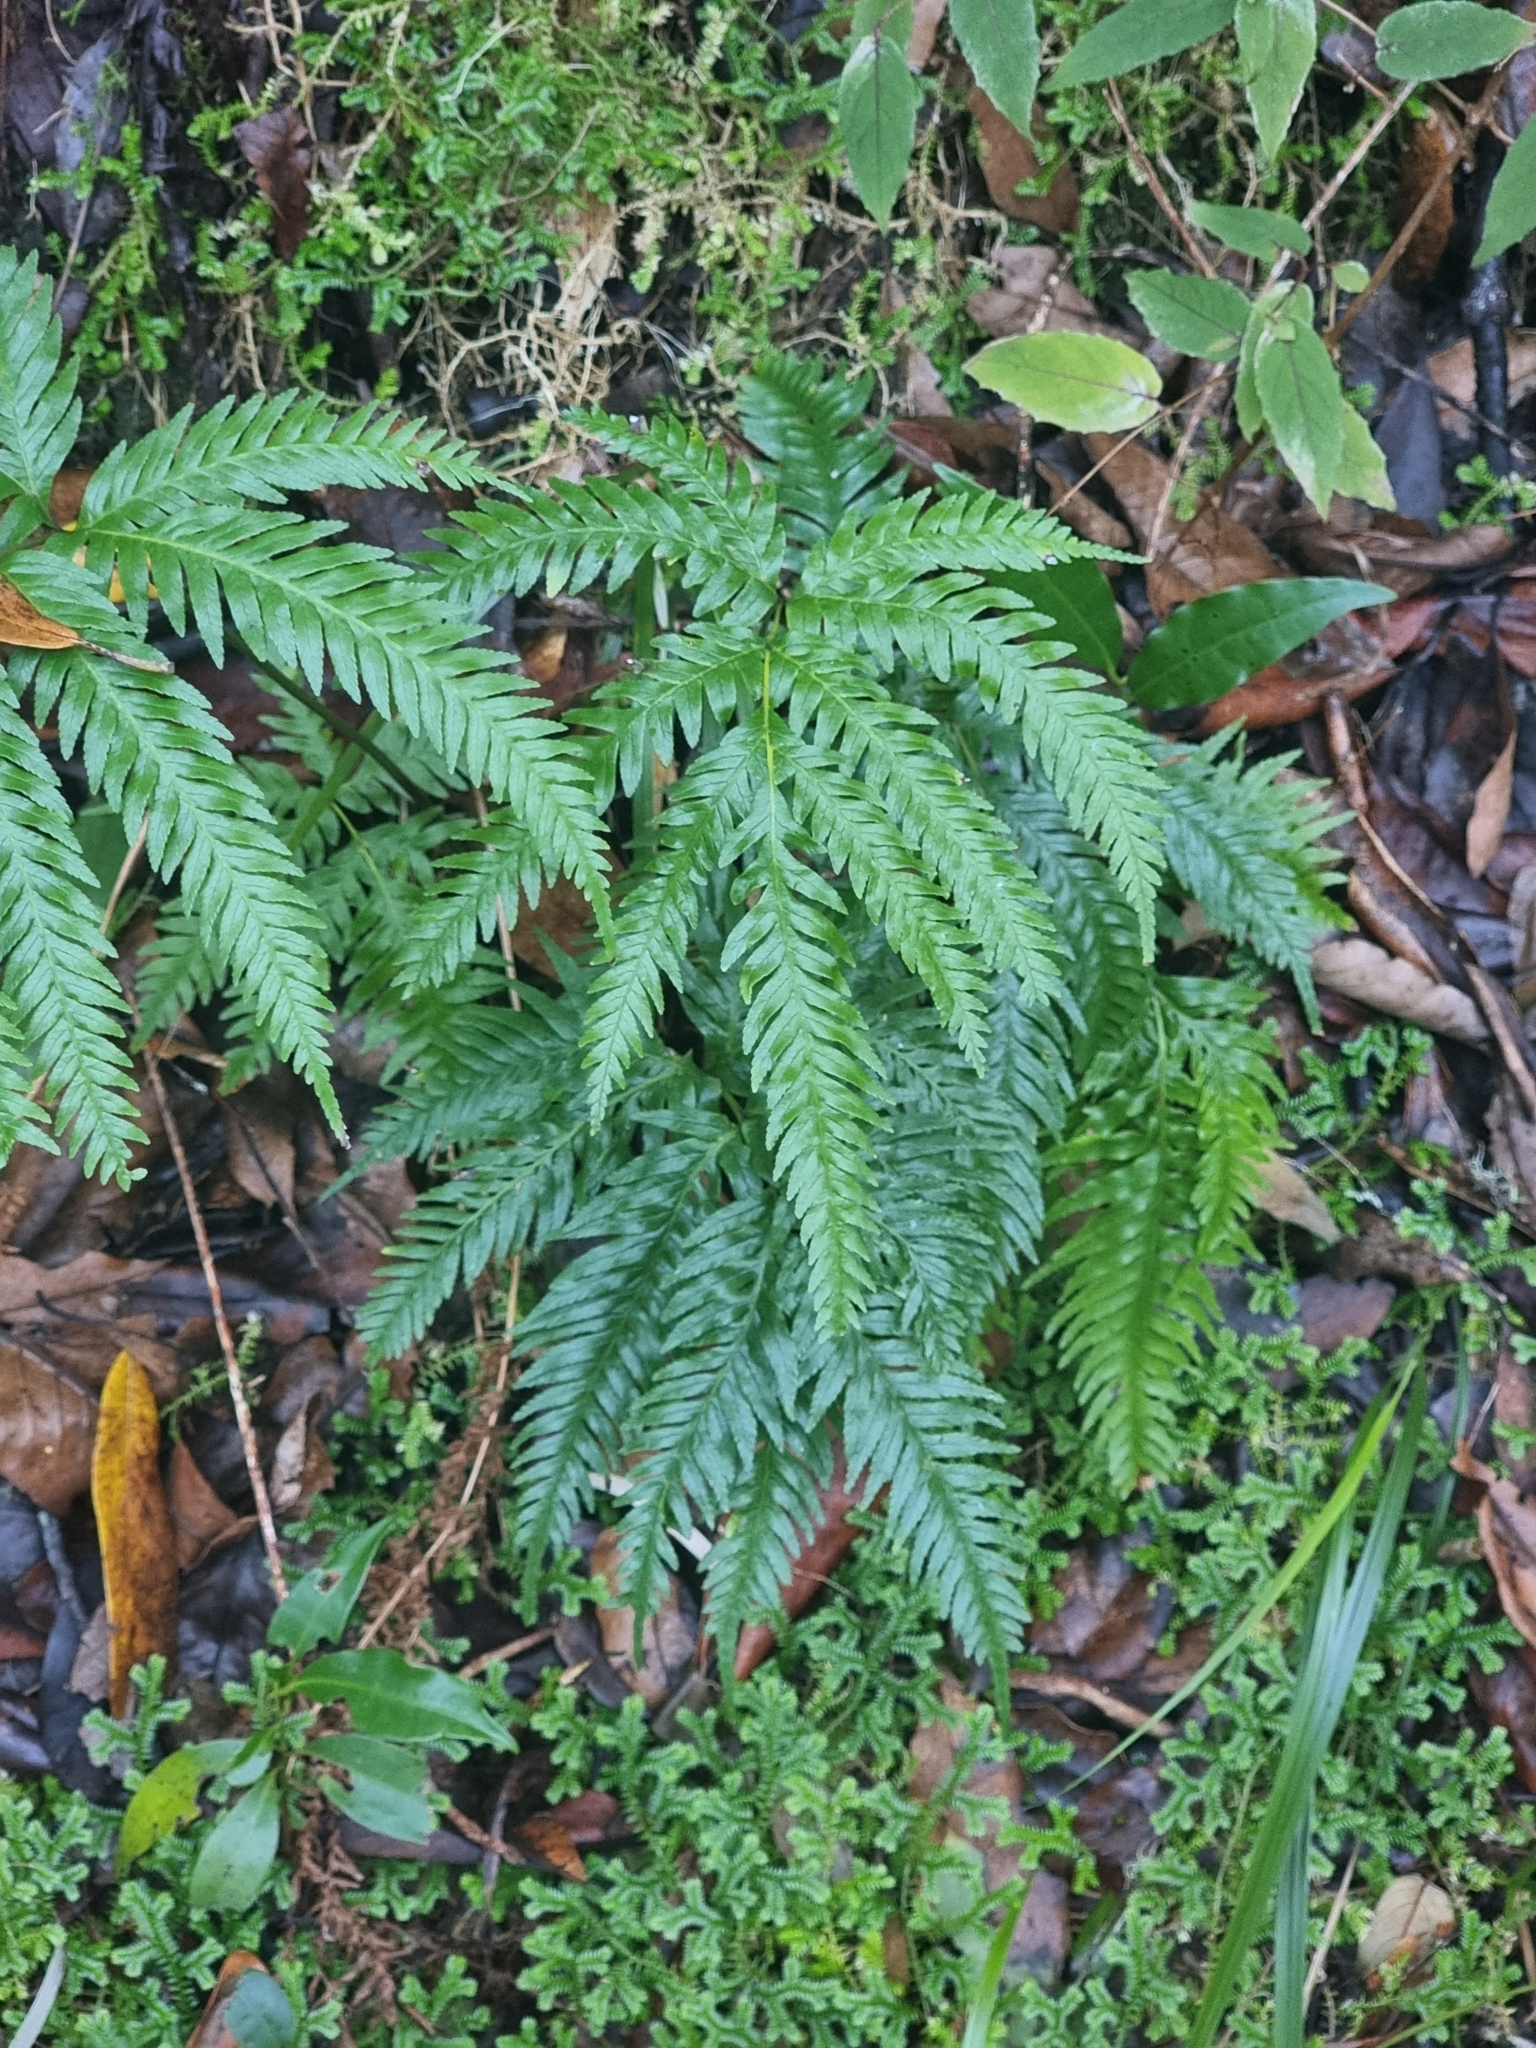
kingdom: Plantae
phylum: Tracheophyta
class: Polypodiopsida
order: Polypodiales
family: Pteridaceae
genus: Pteris
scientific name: Pteris incompleta
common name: Laurisilva brake
